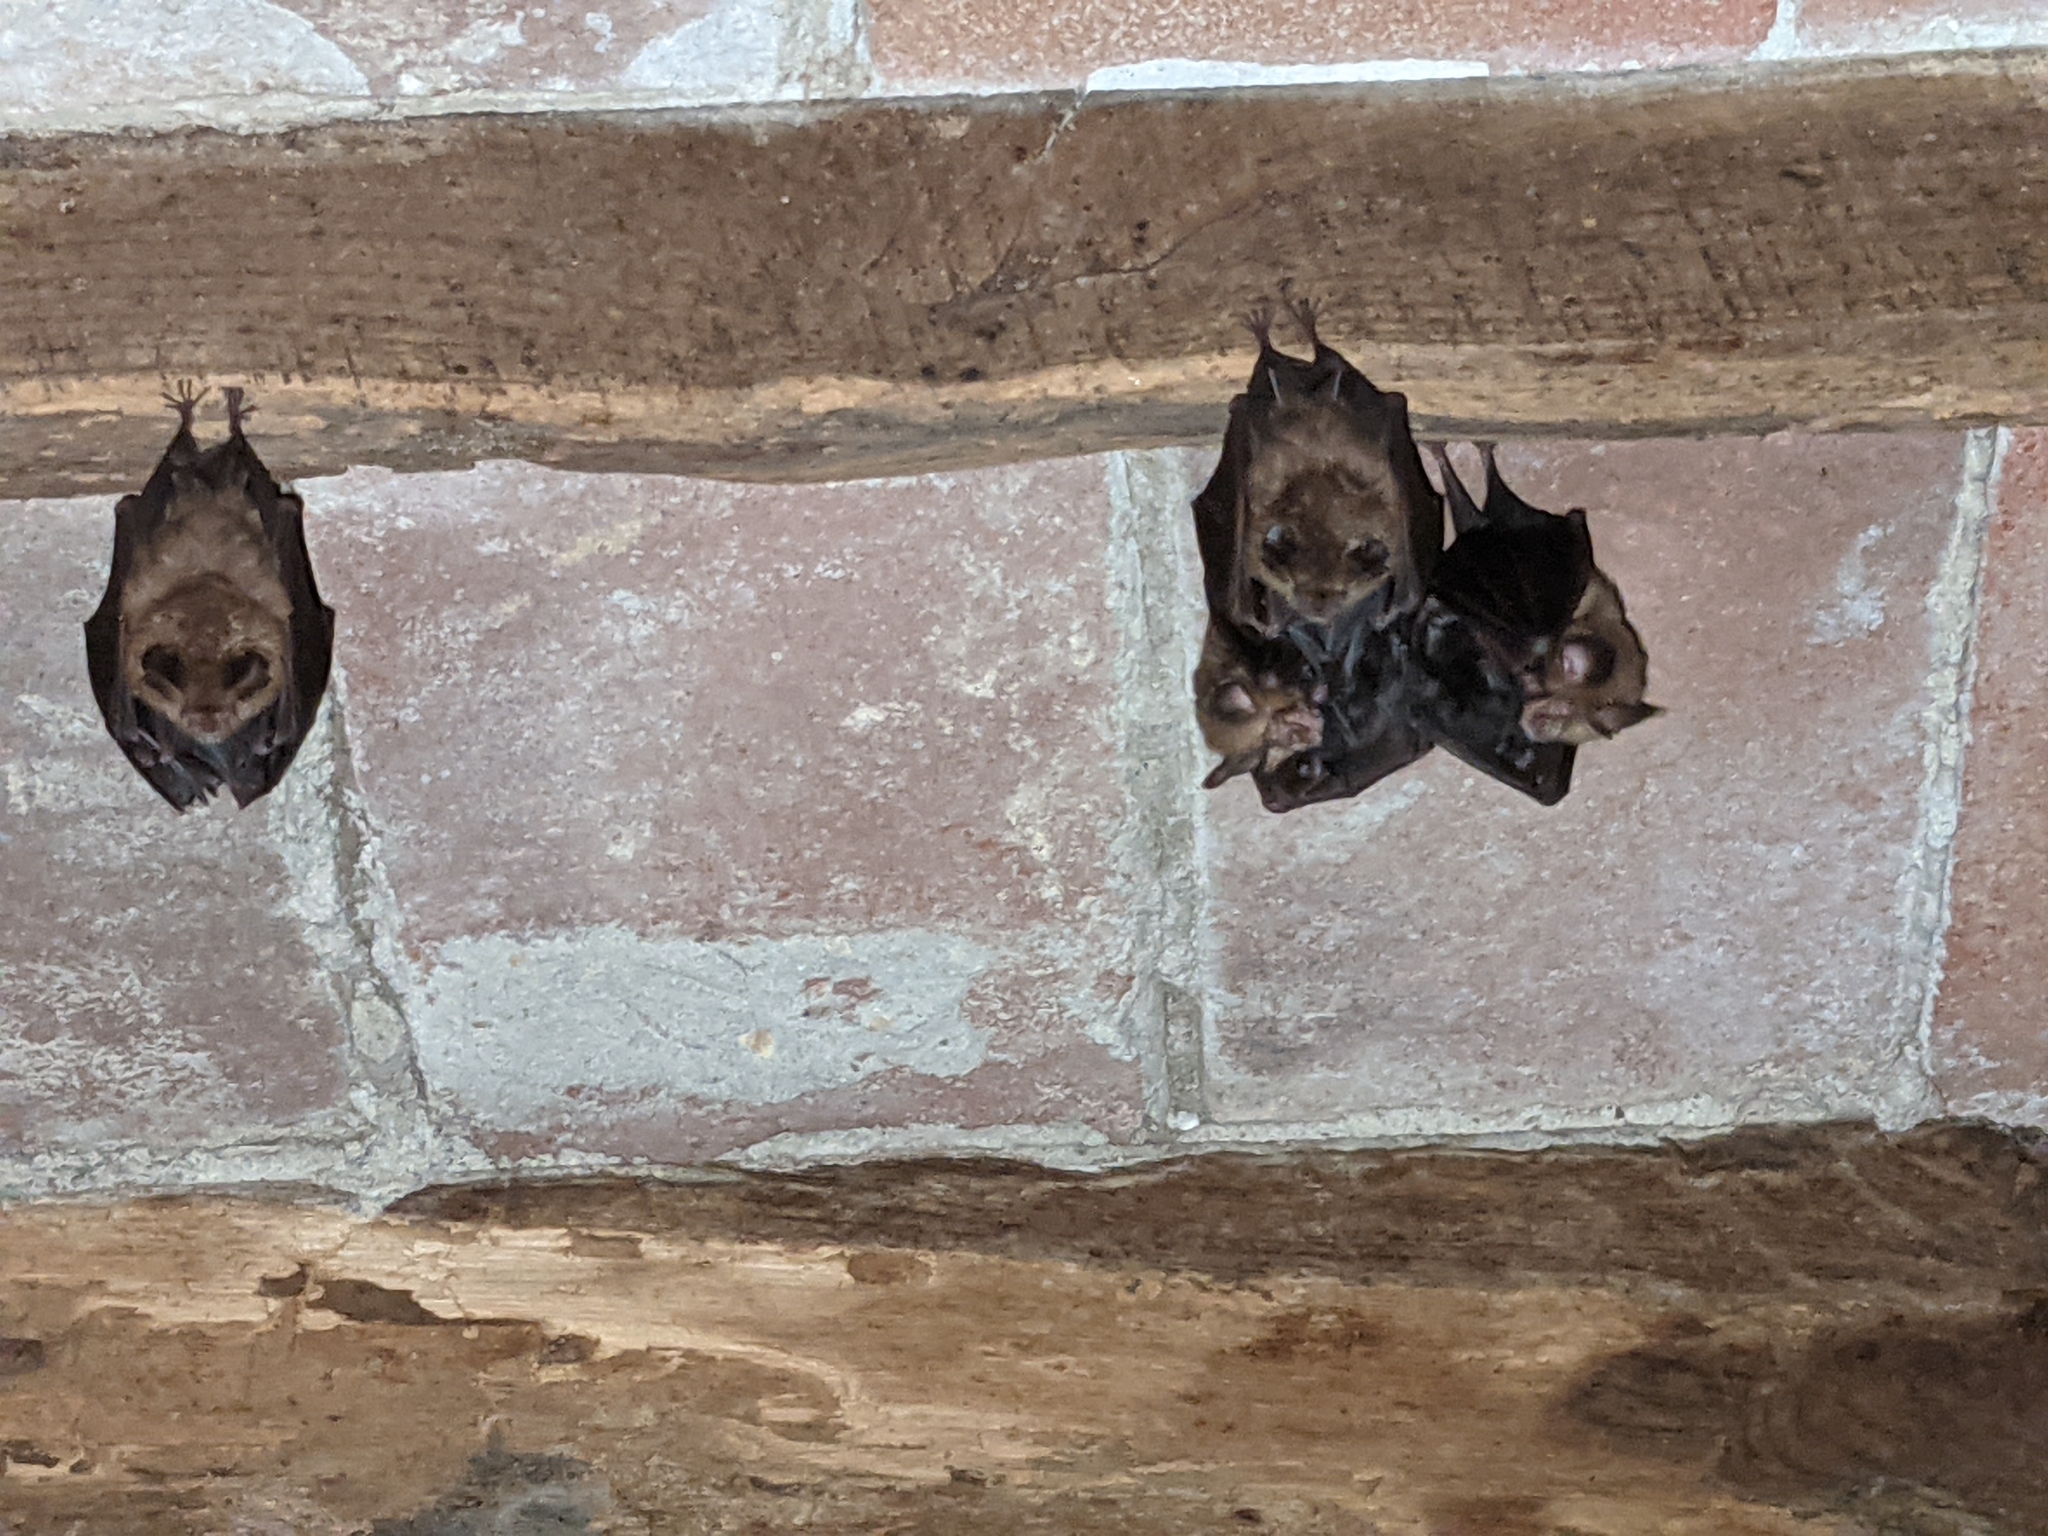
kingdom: Animalia
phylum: Chordata
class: Mammalia
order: Chiroptera
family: Rhinolophidae
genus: Rhinolophus
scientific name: Rhinolophus hipposideros
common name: Lesser horseshoe bat
